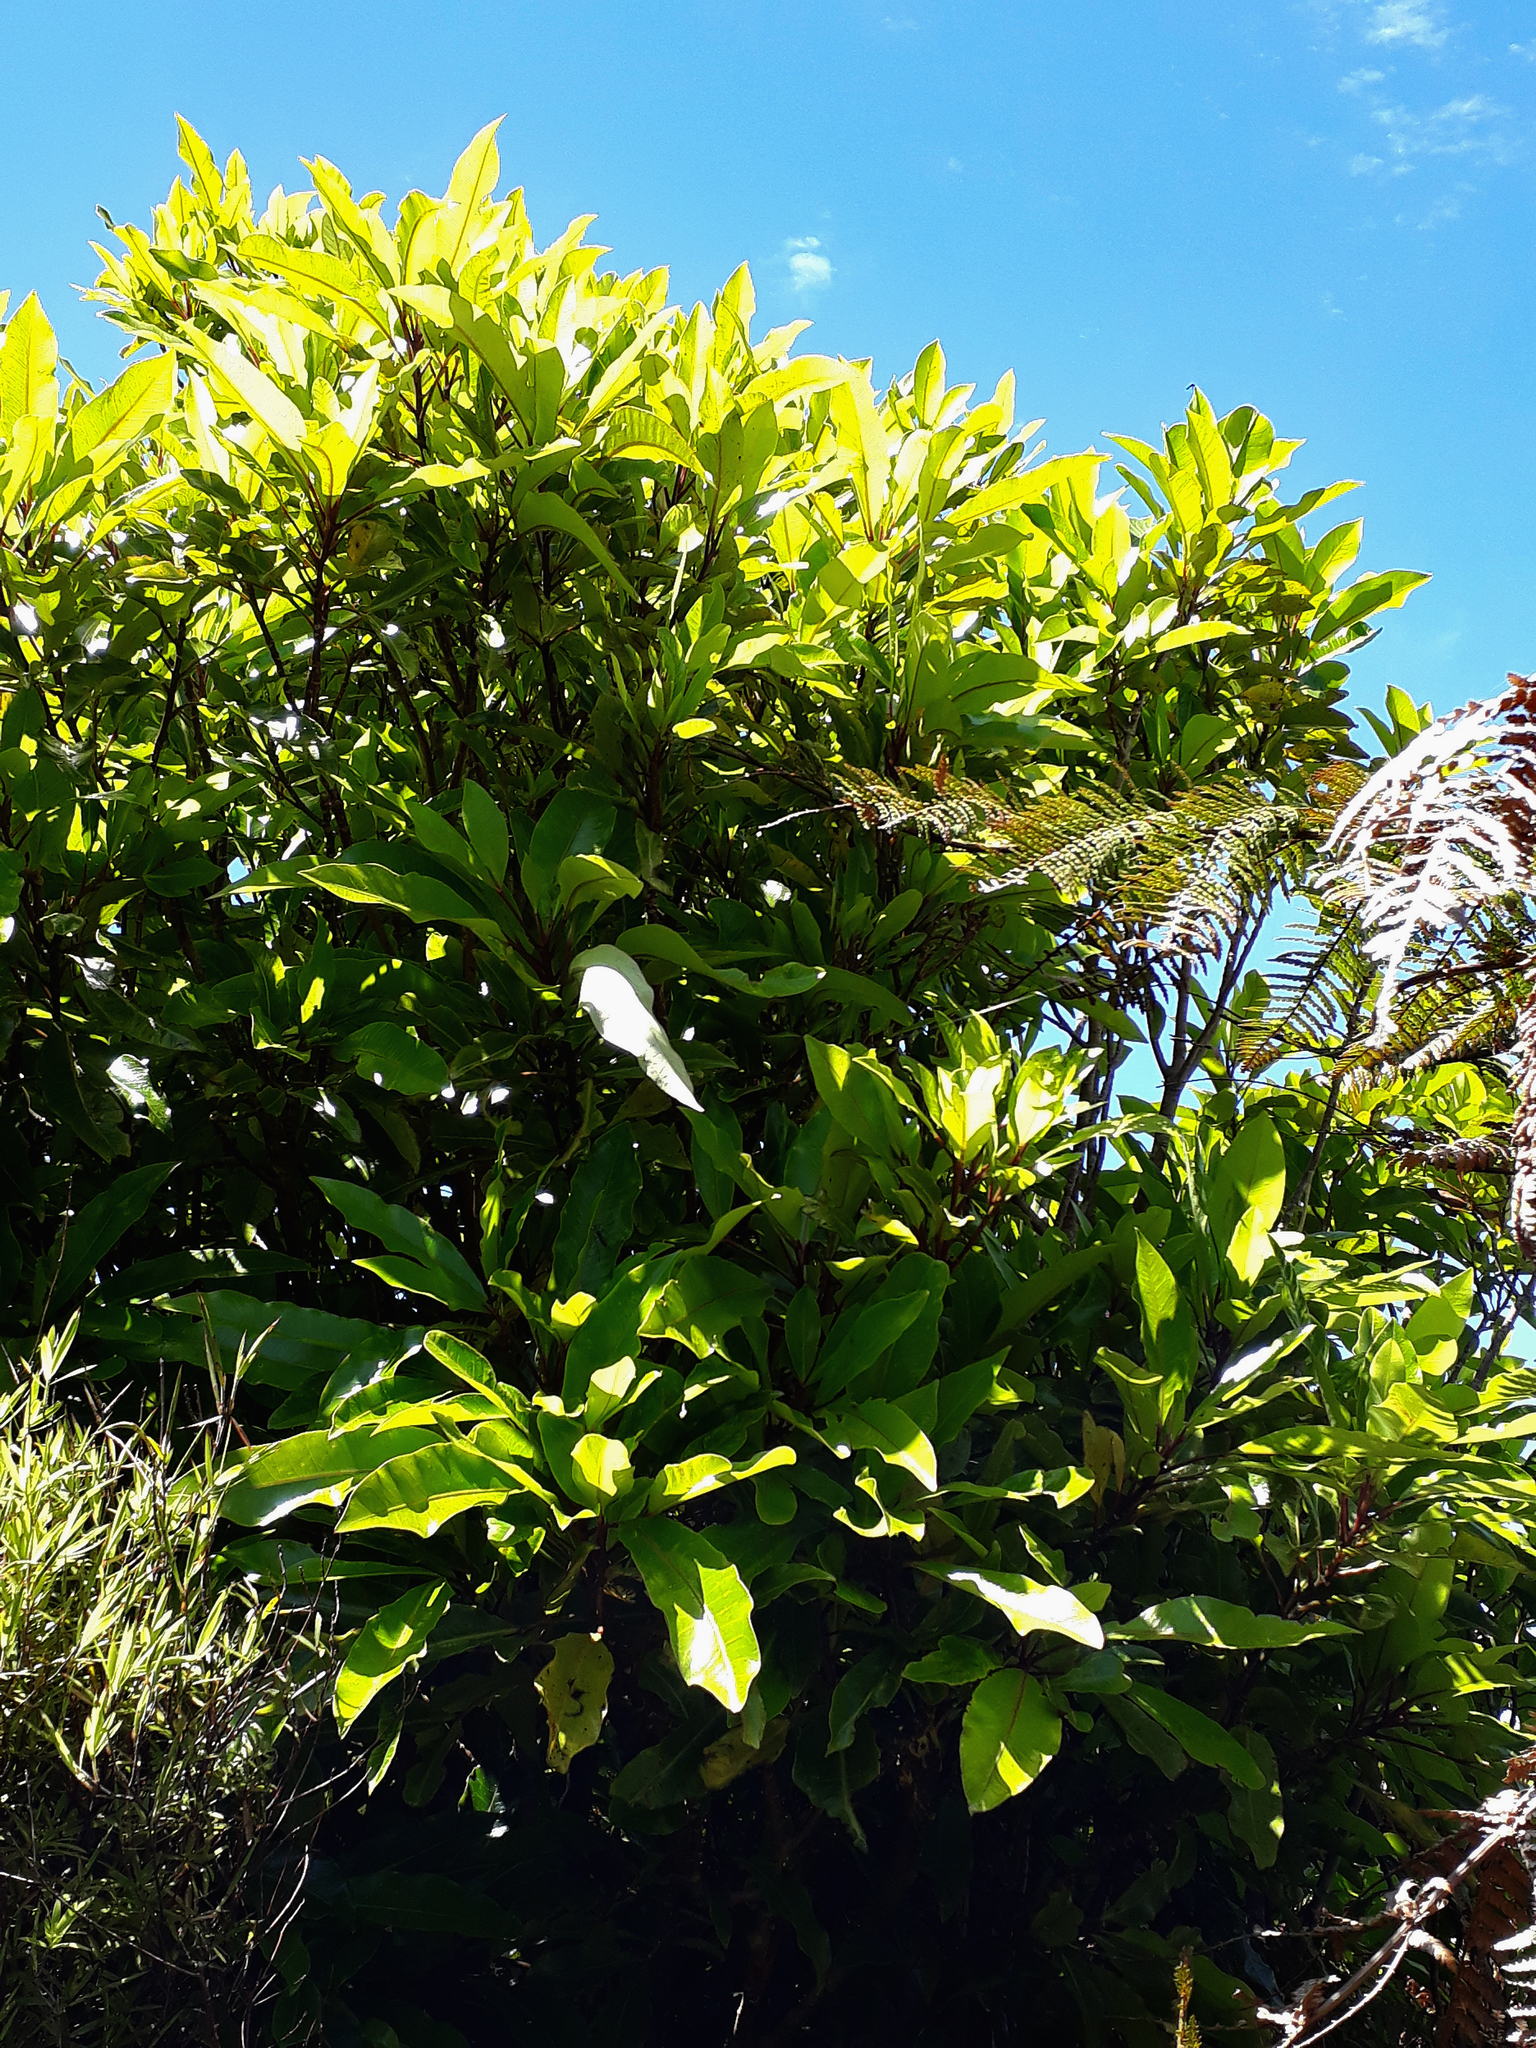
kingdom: Plantae
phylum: Tracheophyta
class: Magnoliopsida
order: Apiales
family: Araliaceae
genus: Raukaua
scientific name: Raukaua edgerleyi
